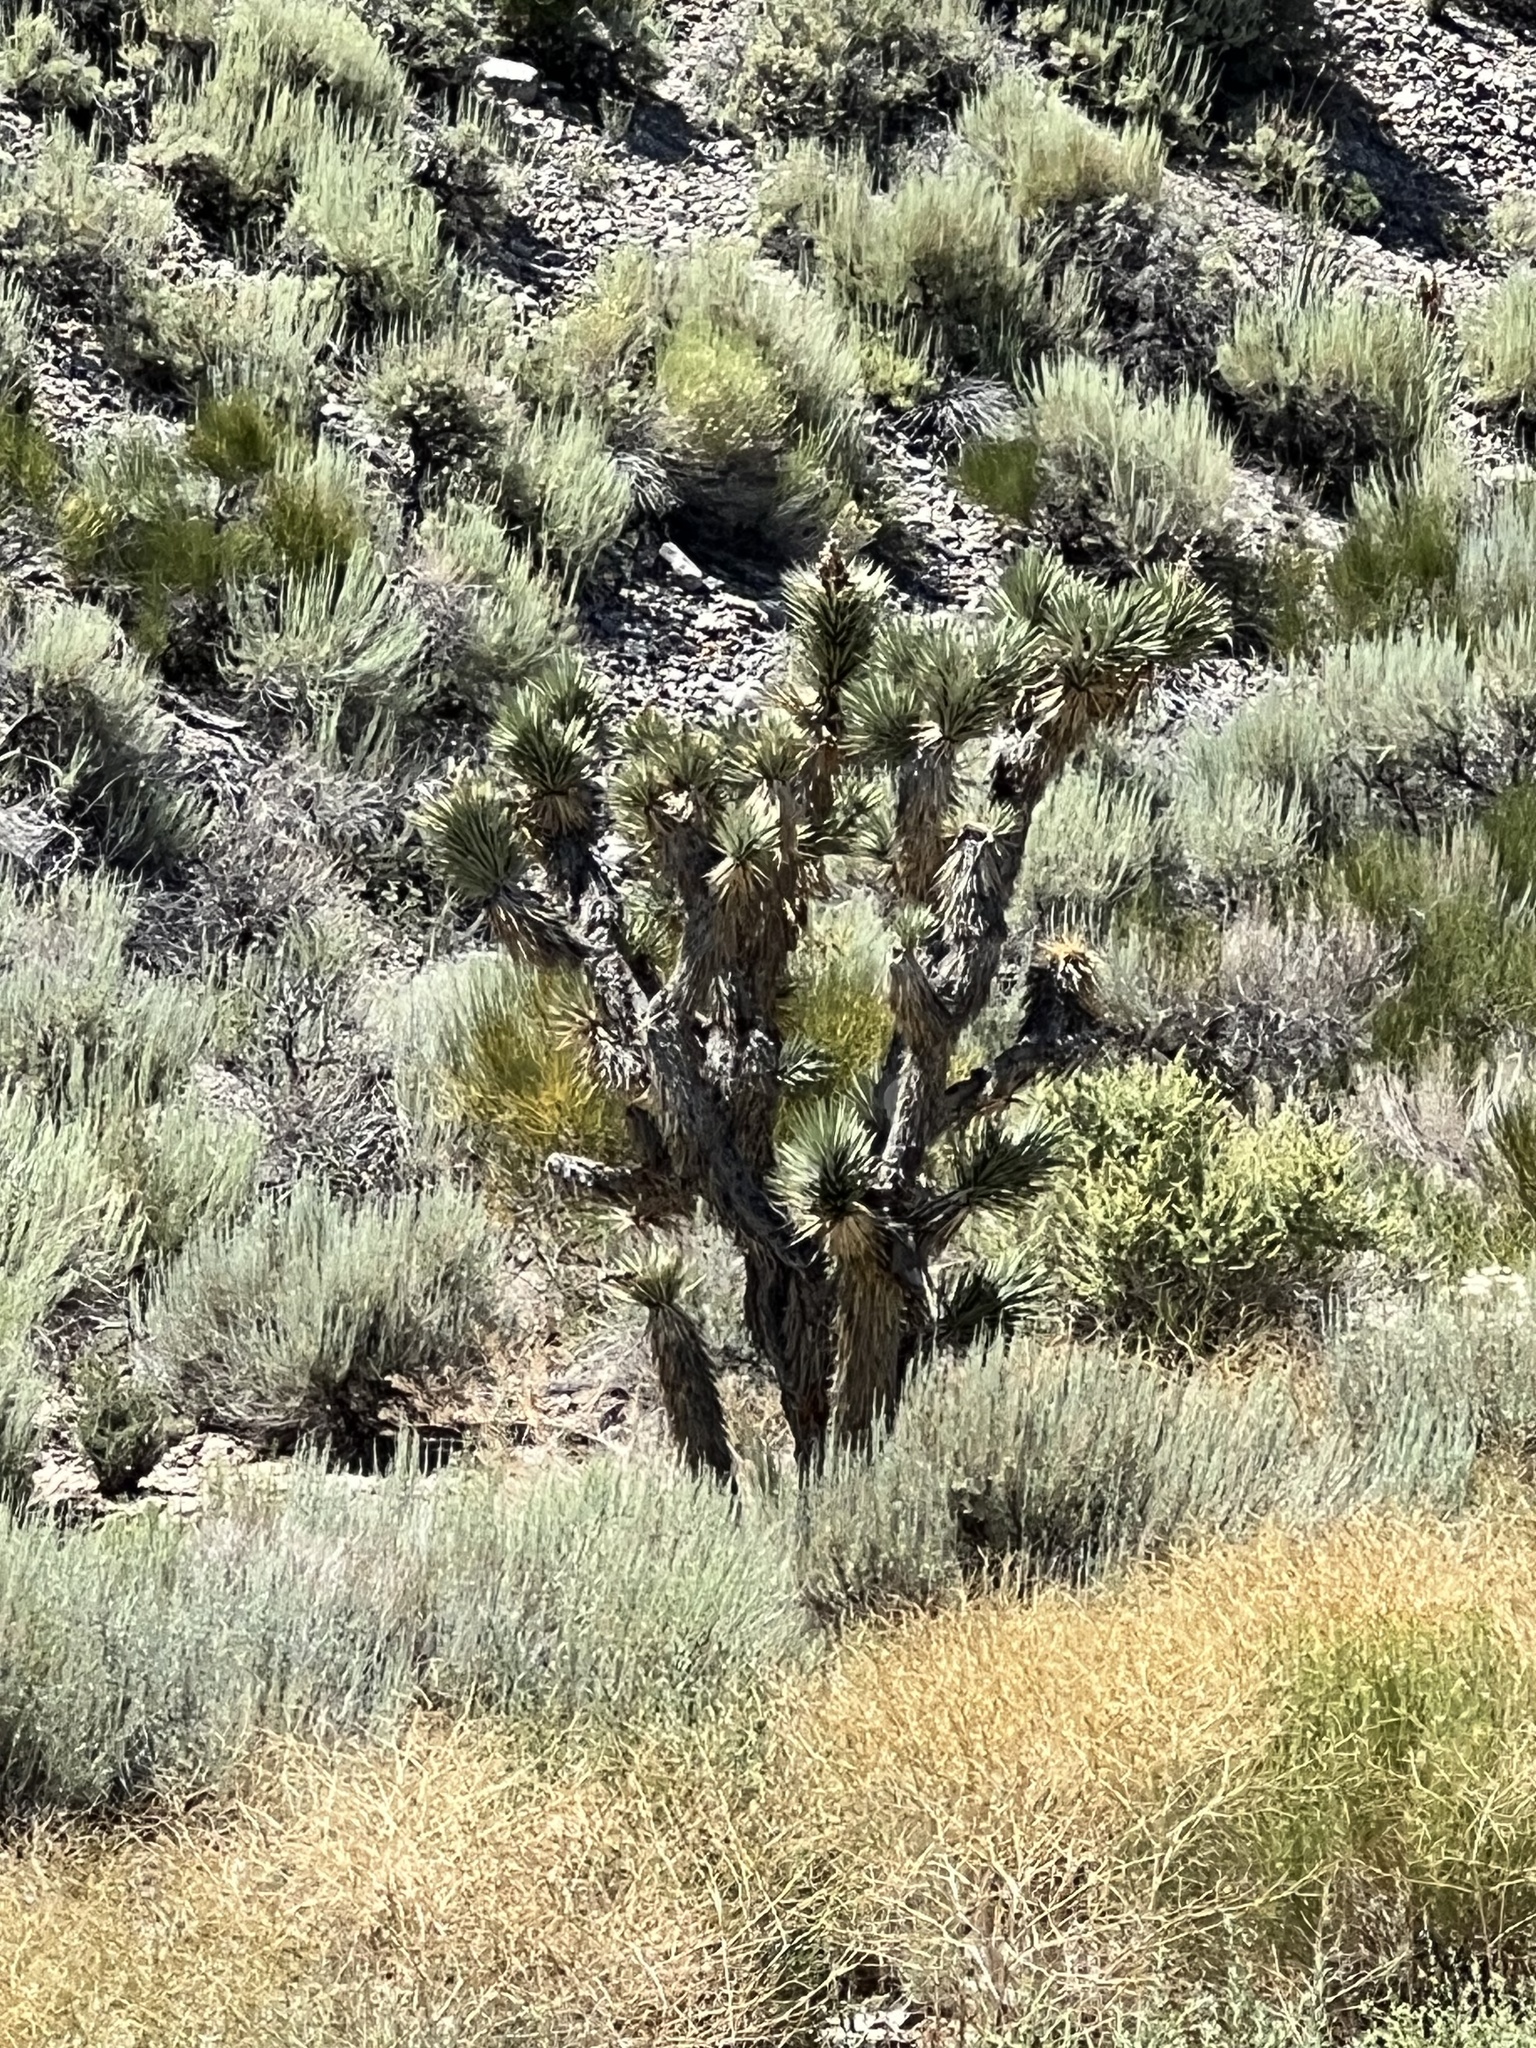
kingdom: Plantae
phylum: Tracheophyta
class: Liliopsida
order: Asparagales
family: Asparagaceae
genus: Yucca
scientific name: Yucca brevifolia
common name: Joshua tree
